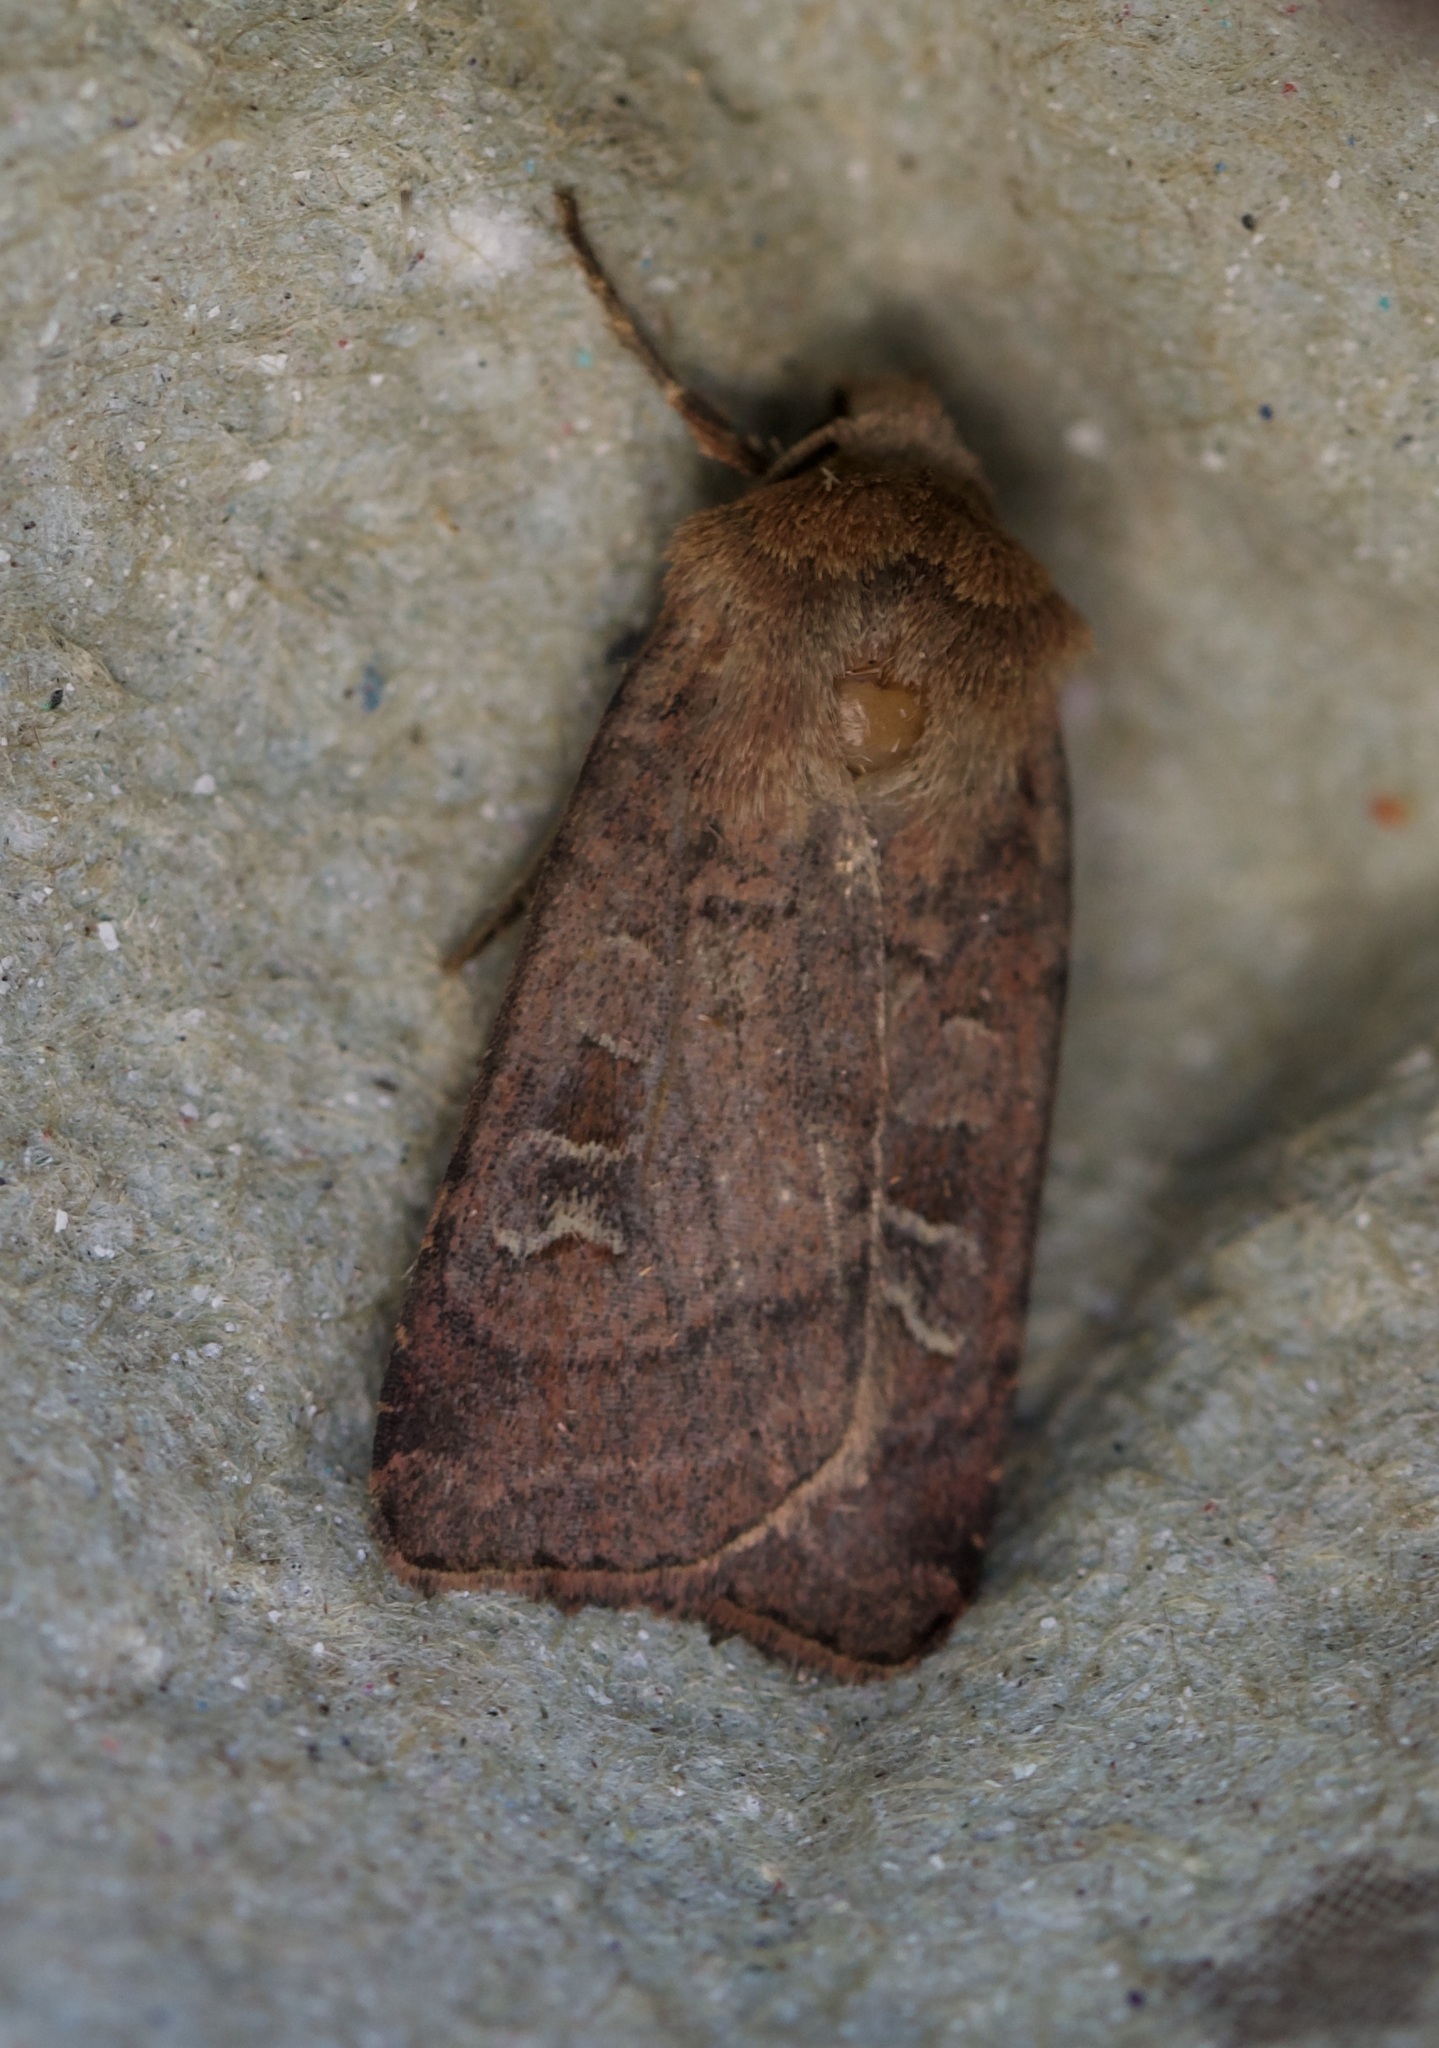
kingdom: Animalia
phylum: Arthropoda
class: Insecta
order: Lepidoptera
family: Noctuidae
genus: Diarsia
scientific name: Diarsia rubi
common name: Small square-spot
